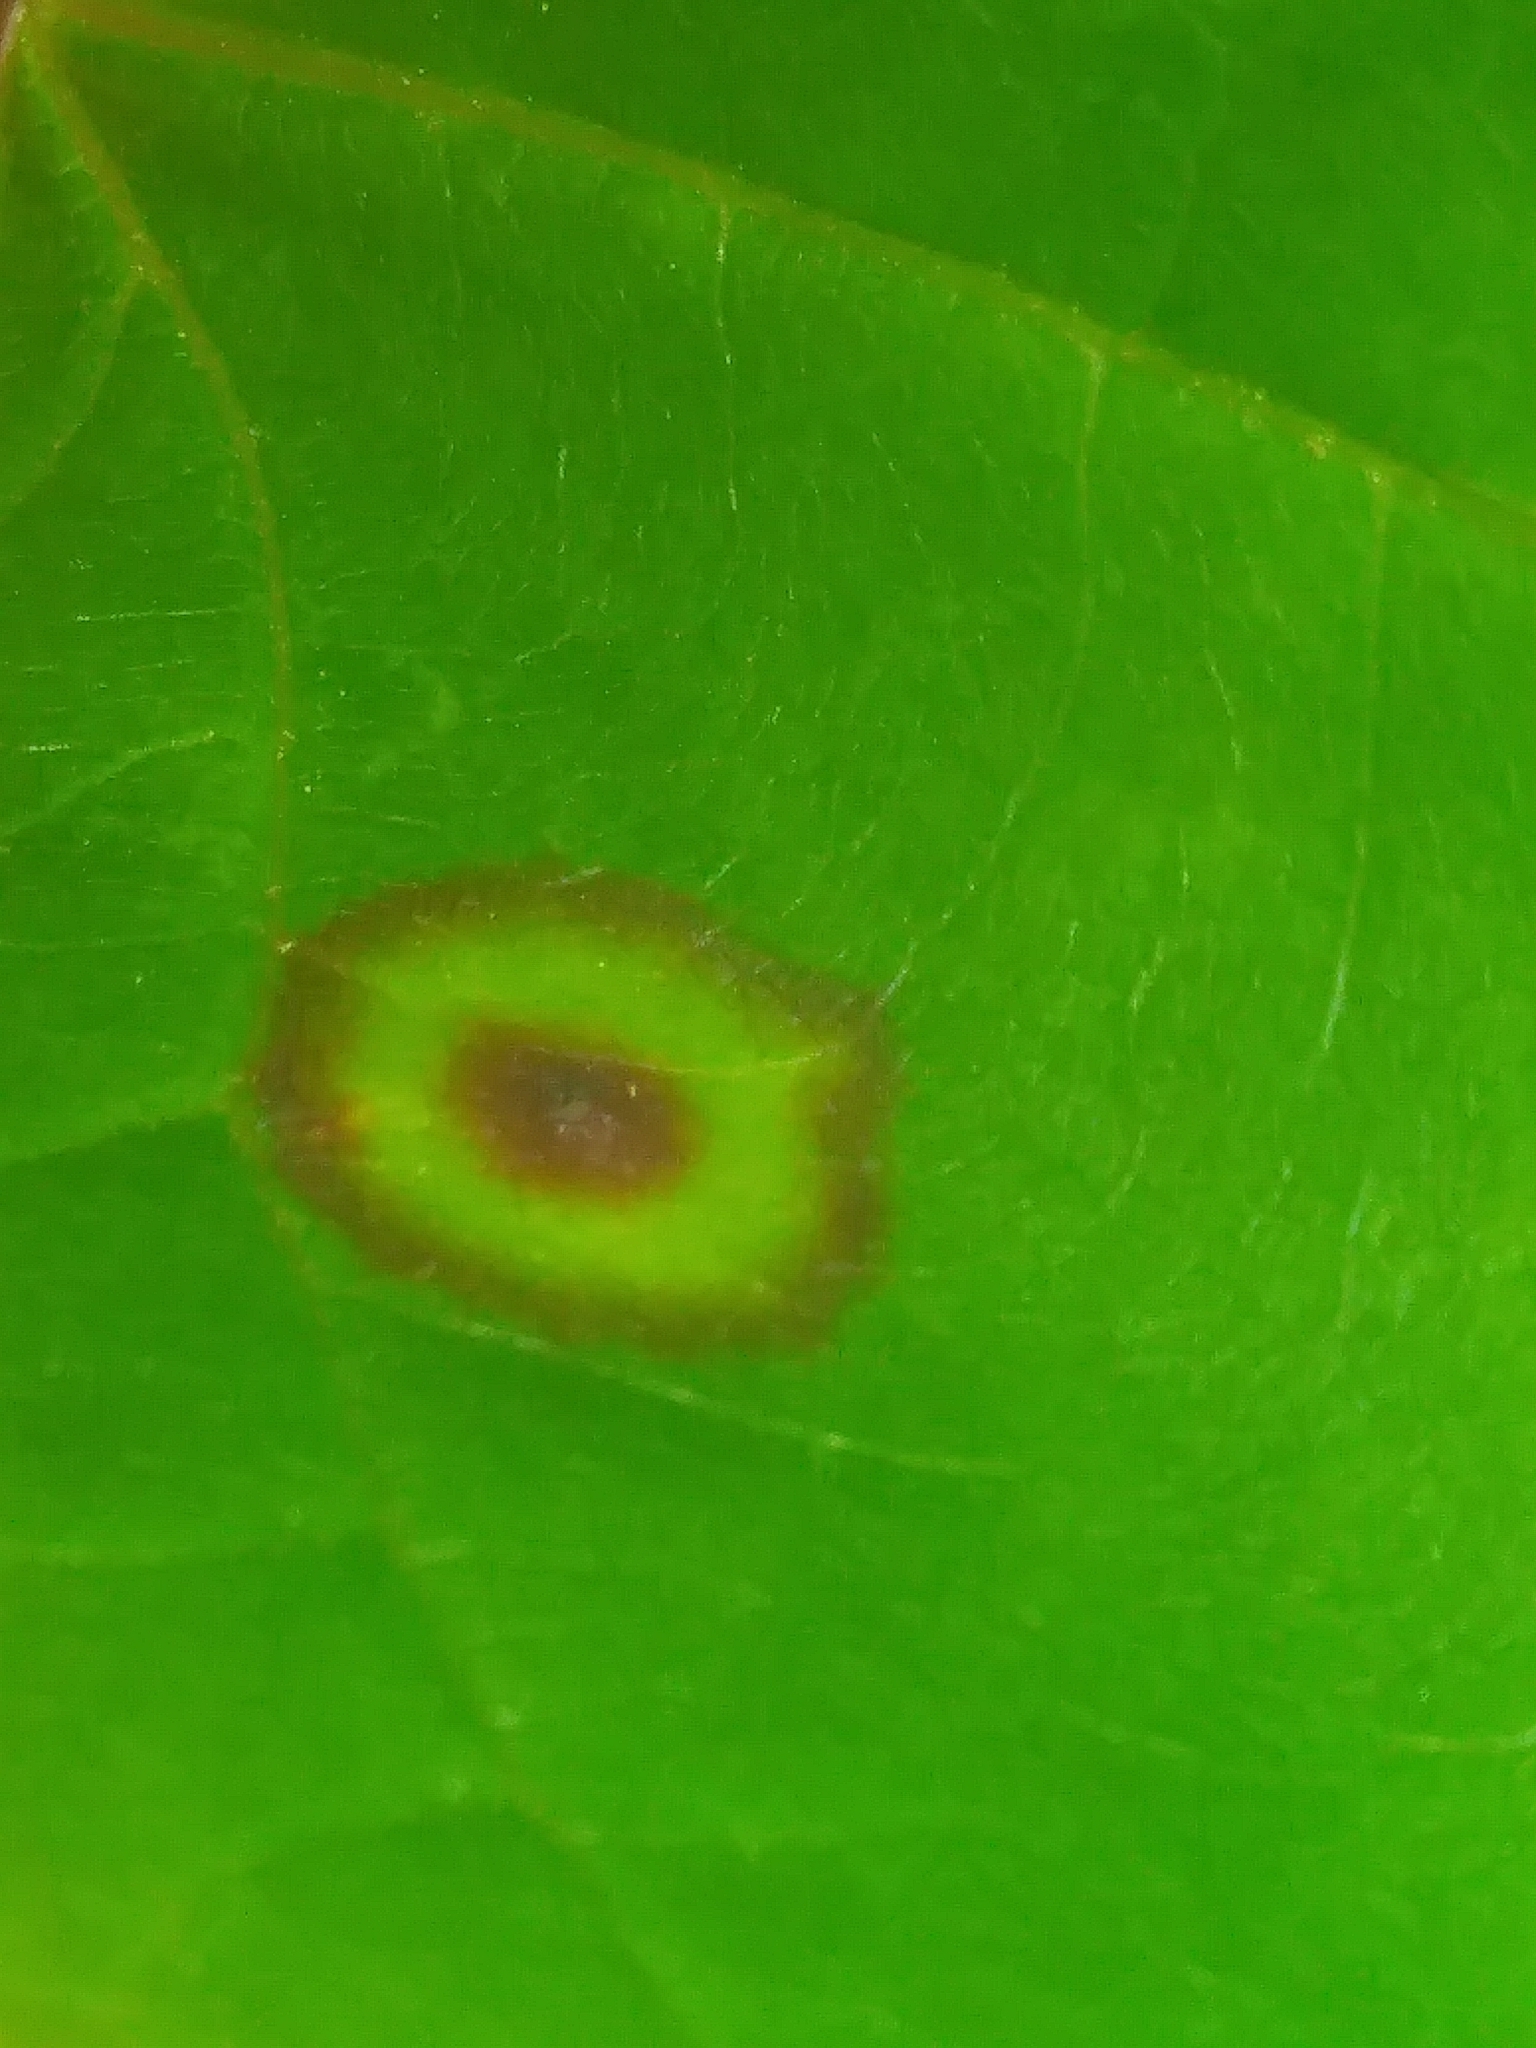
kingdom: Animalia
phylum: Arthropoda
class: Insecta
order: Diptera
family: Cecidomyiidae
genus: Acericecis
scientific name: Acericecis ocellaris
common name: Ocellate gall midge
